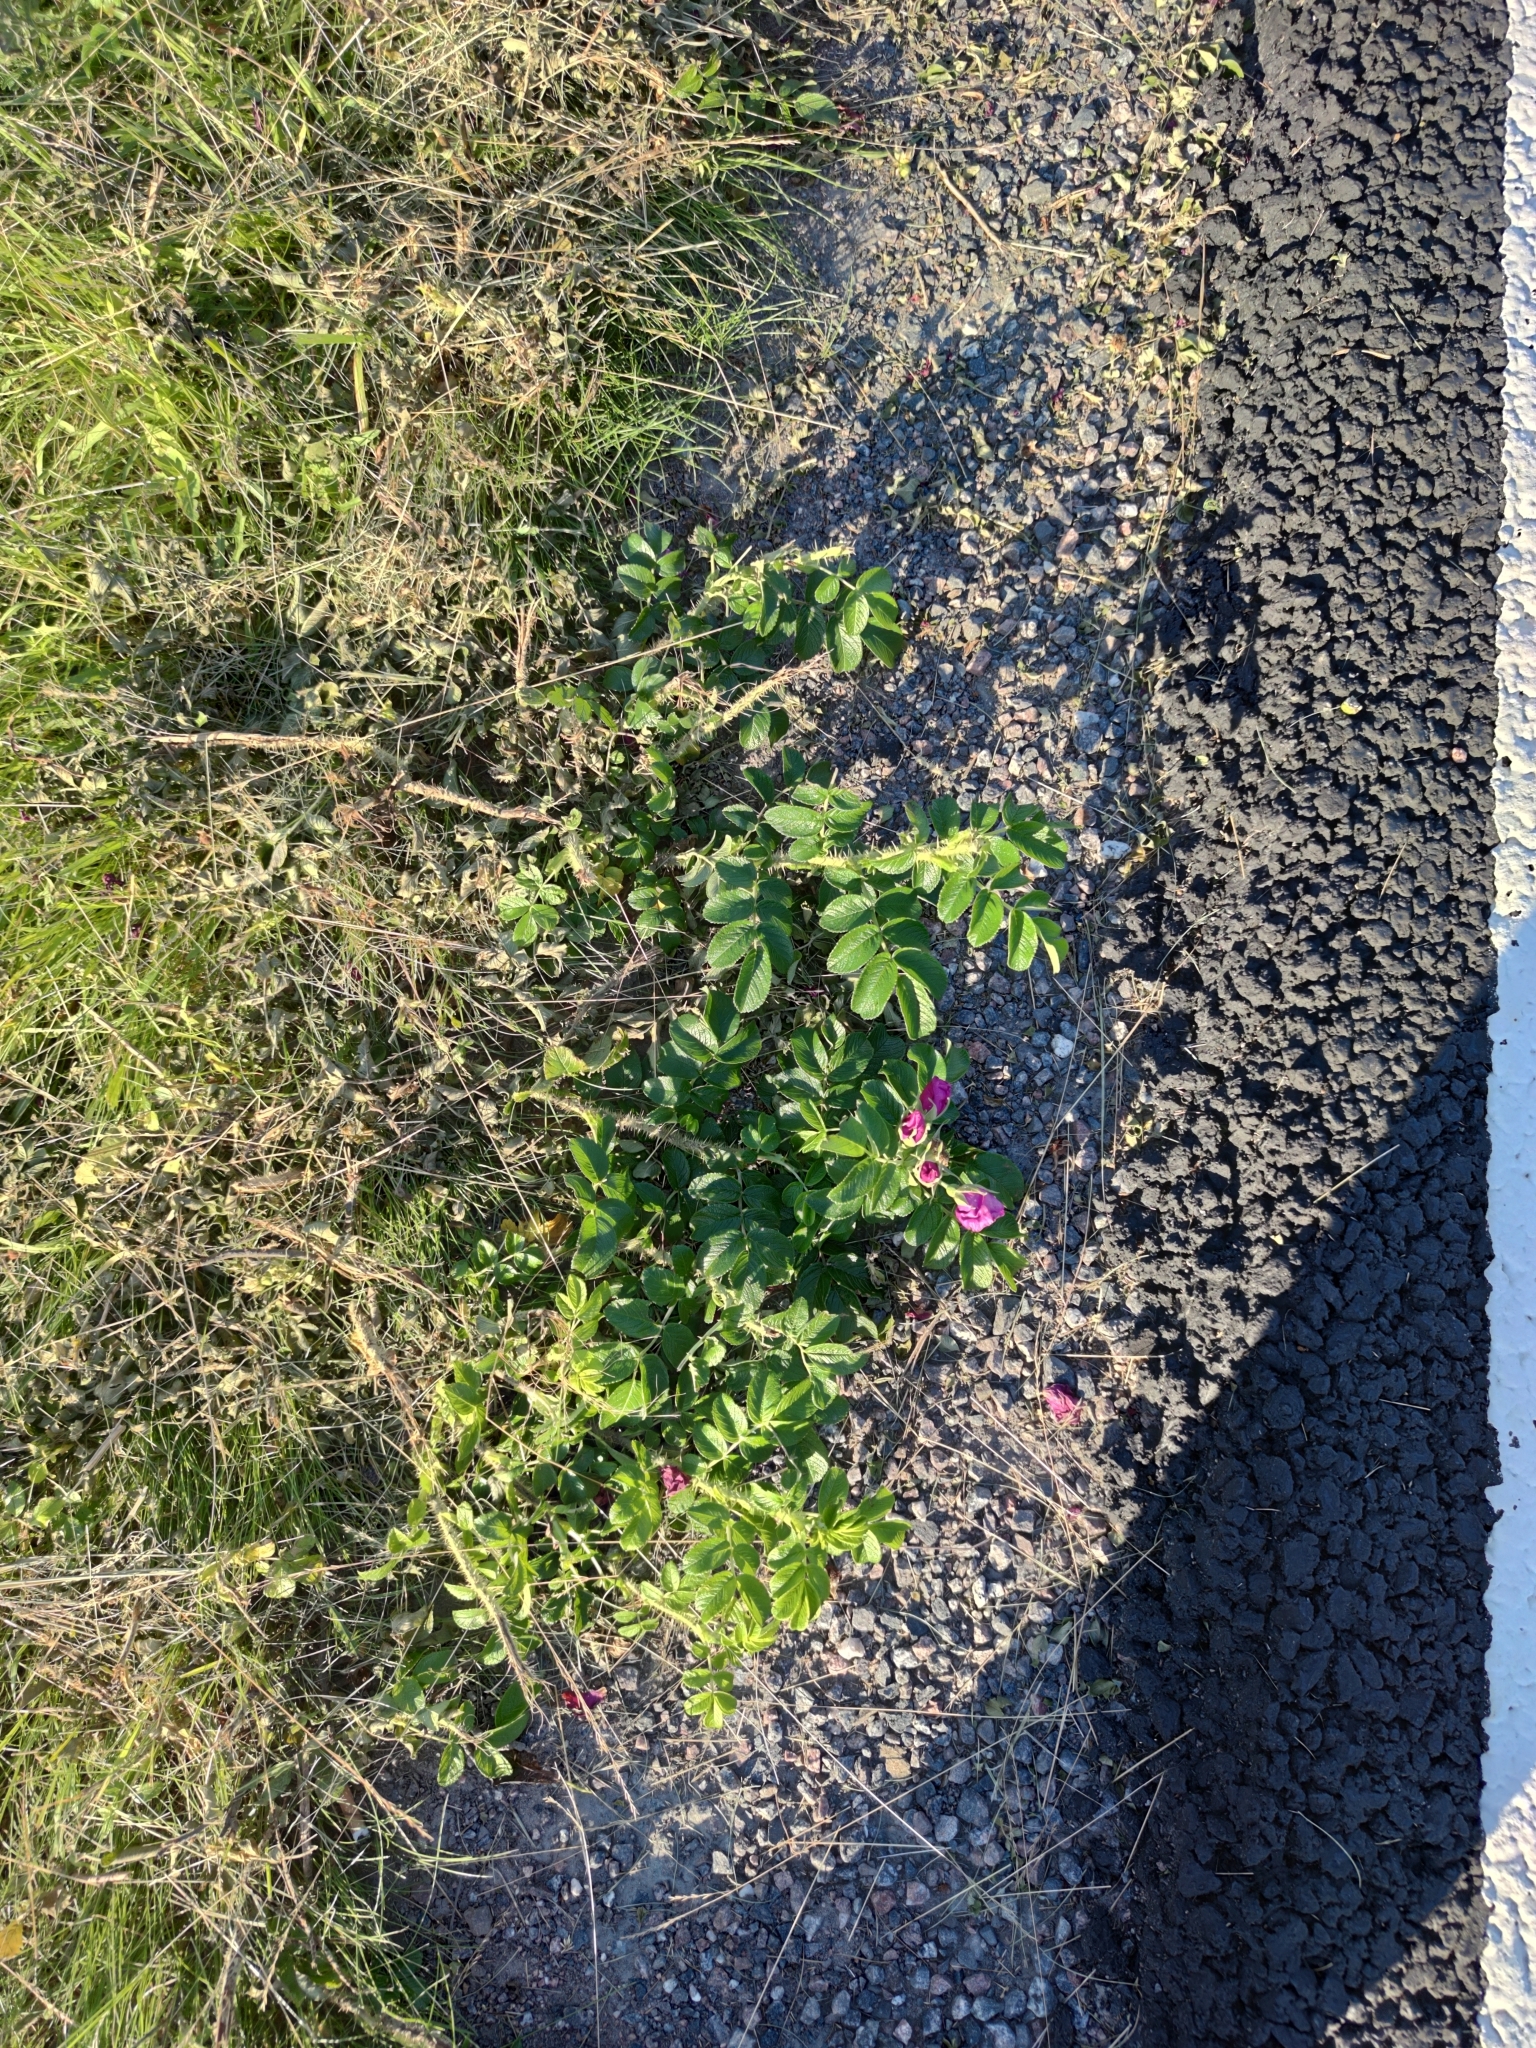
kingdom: Plantae
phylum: Tracheophyta
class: Magnoliopsida
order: Rosales
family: Rosaceae
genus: Rosa
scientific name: Rosa rugosa
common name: Japanese rose
